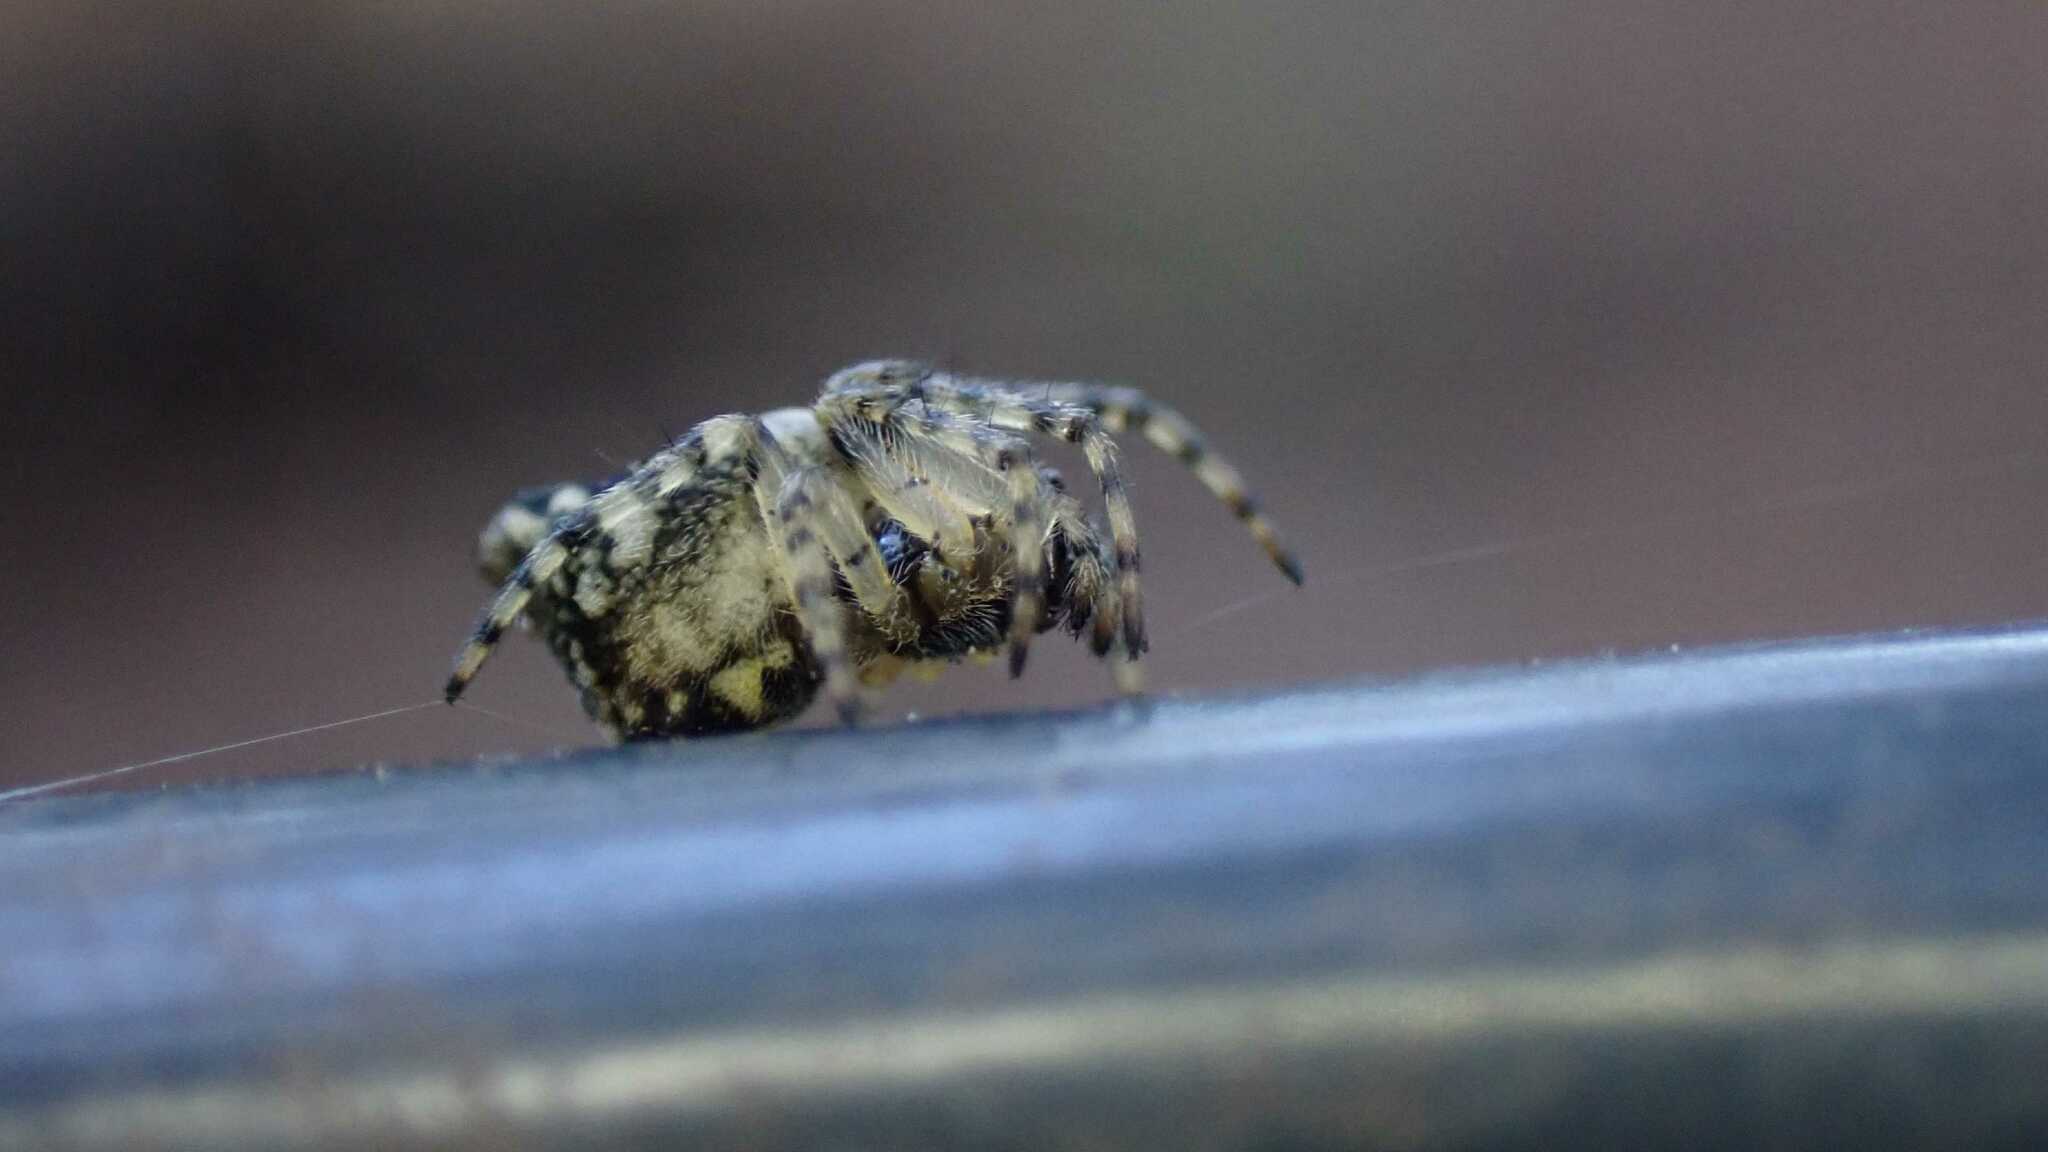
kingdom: Animalia
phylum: Arthropoda
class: Arachnida
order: Araneae
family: Araneidae
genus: Cyclosa
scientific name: Cyclosa conica
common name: Conical trashline orbweaver
